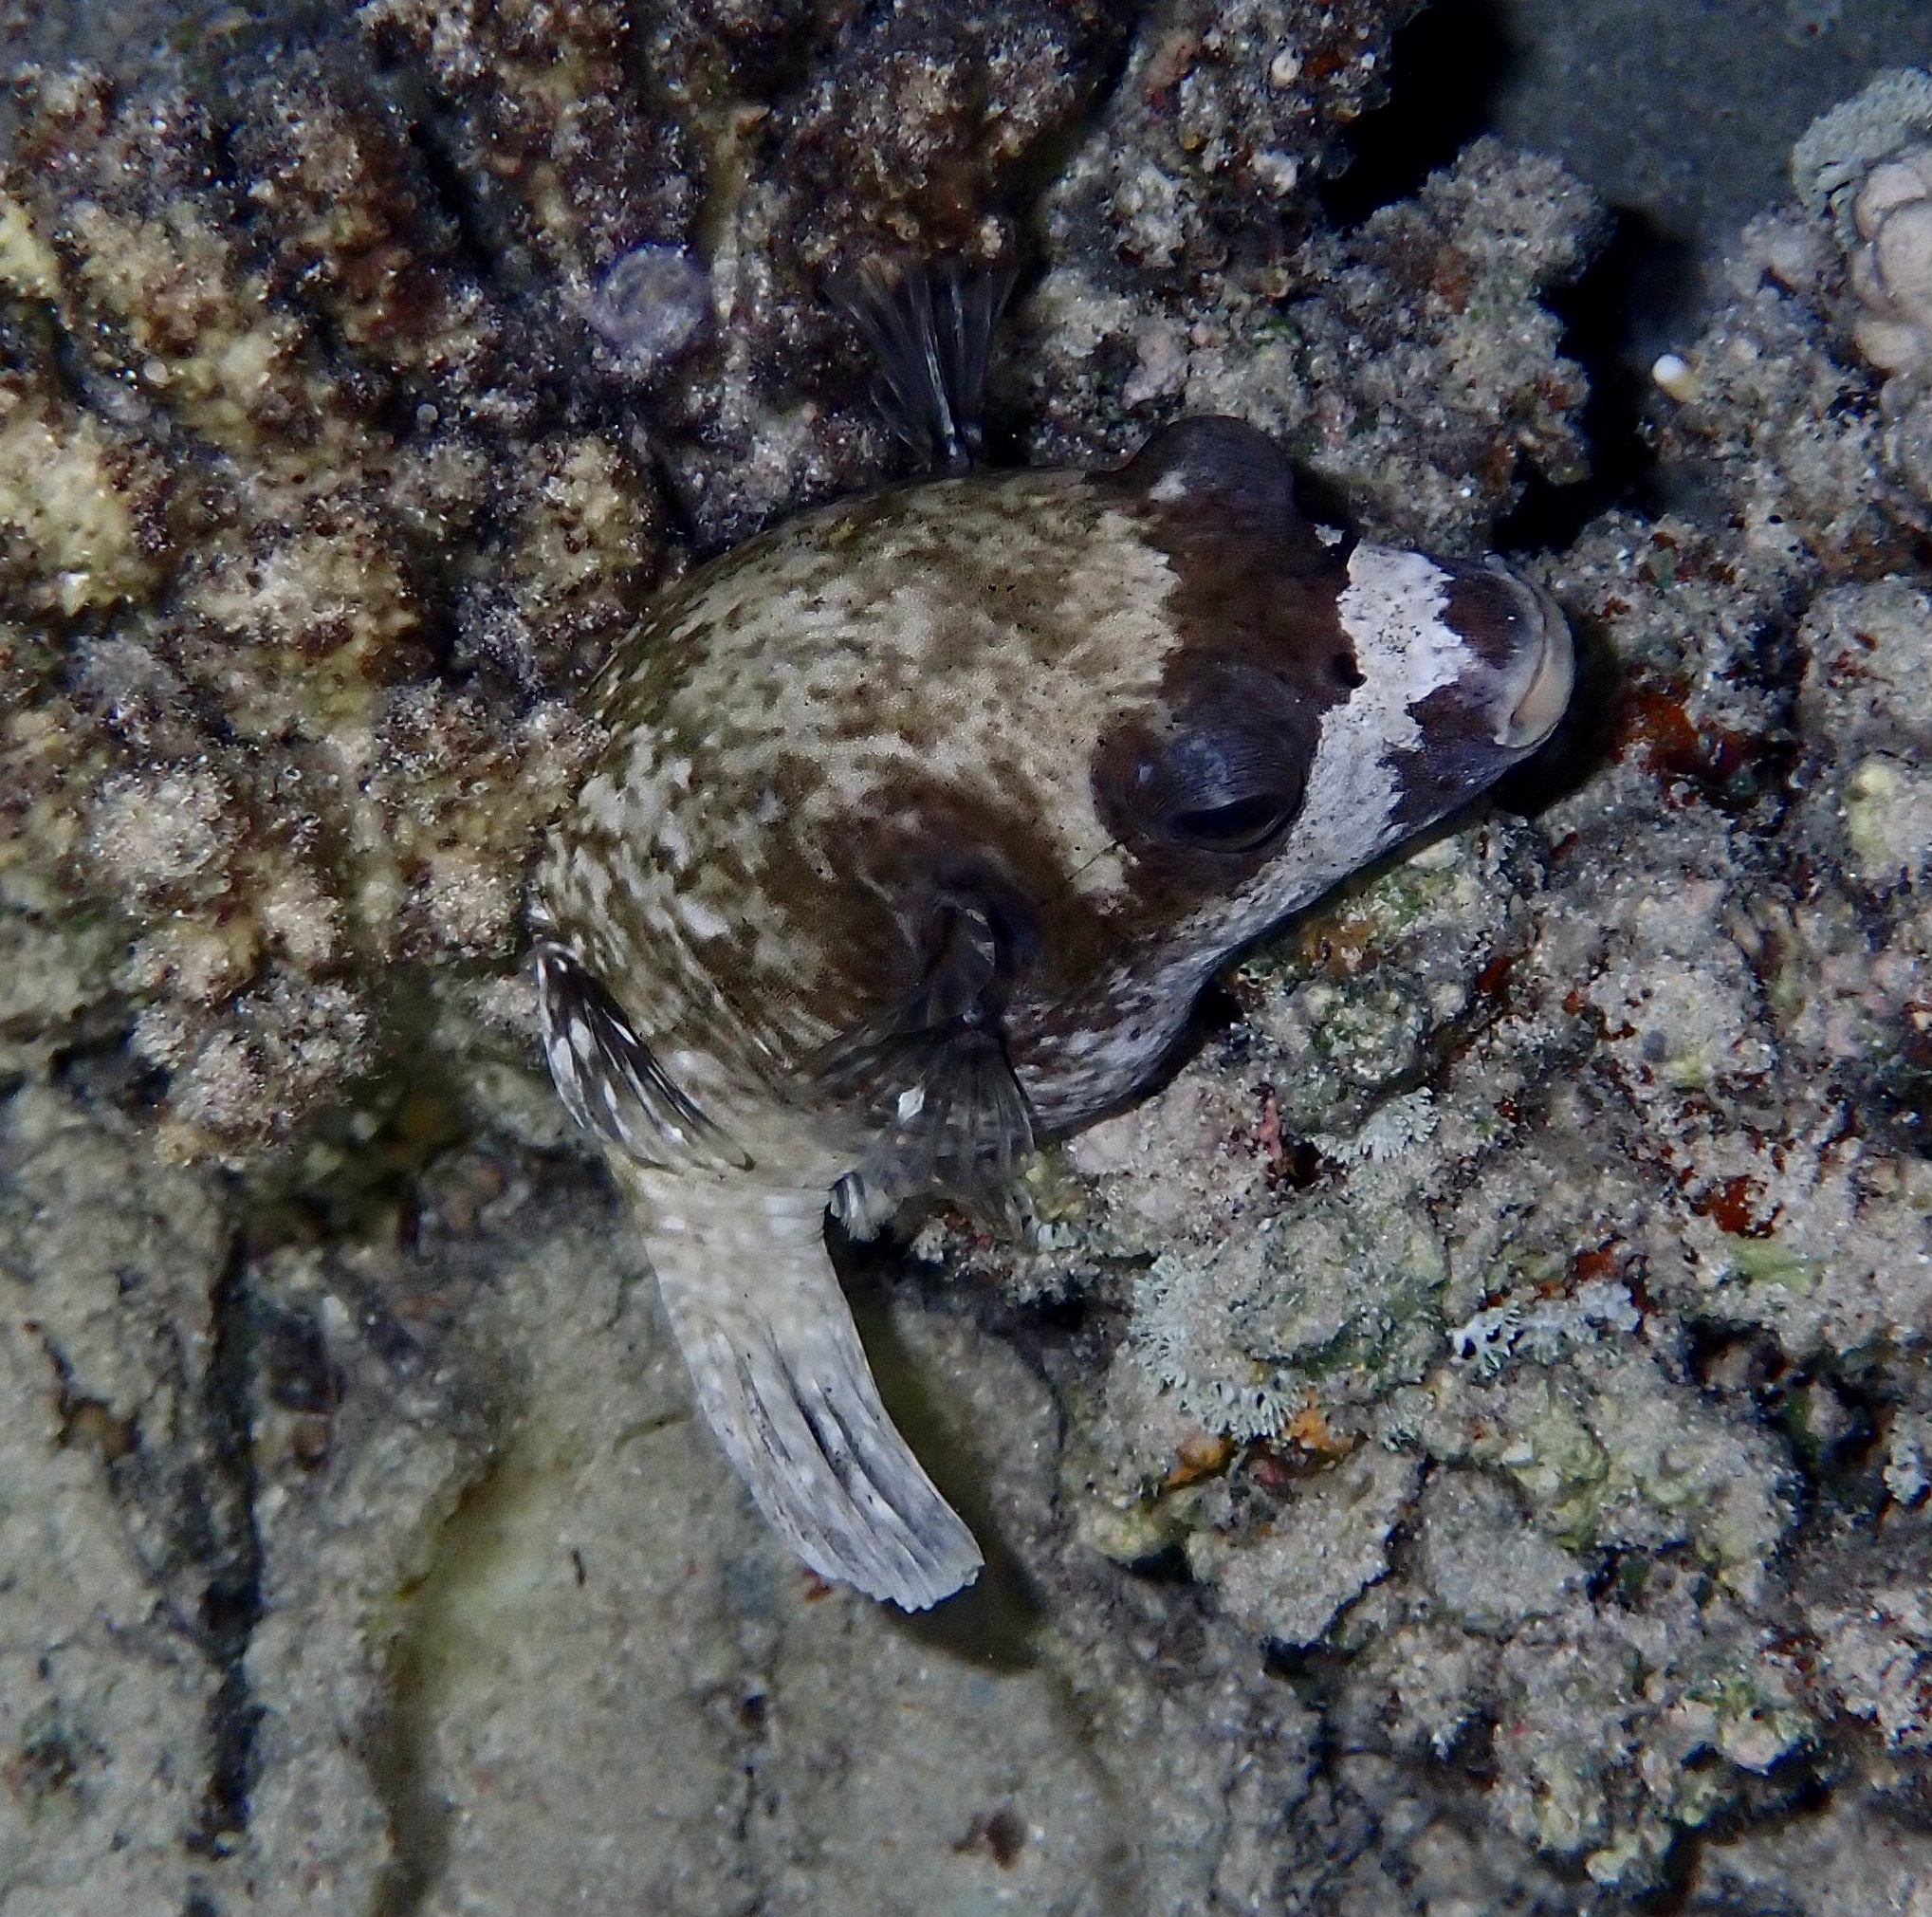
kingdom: Animalia
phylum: Chordata
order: Tetraodontiformes
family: Tetraodontidae
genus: Arothron
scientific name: Arothron diadematus
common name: Masked puffer
